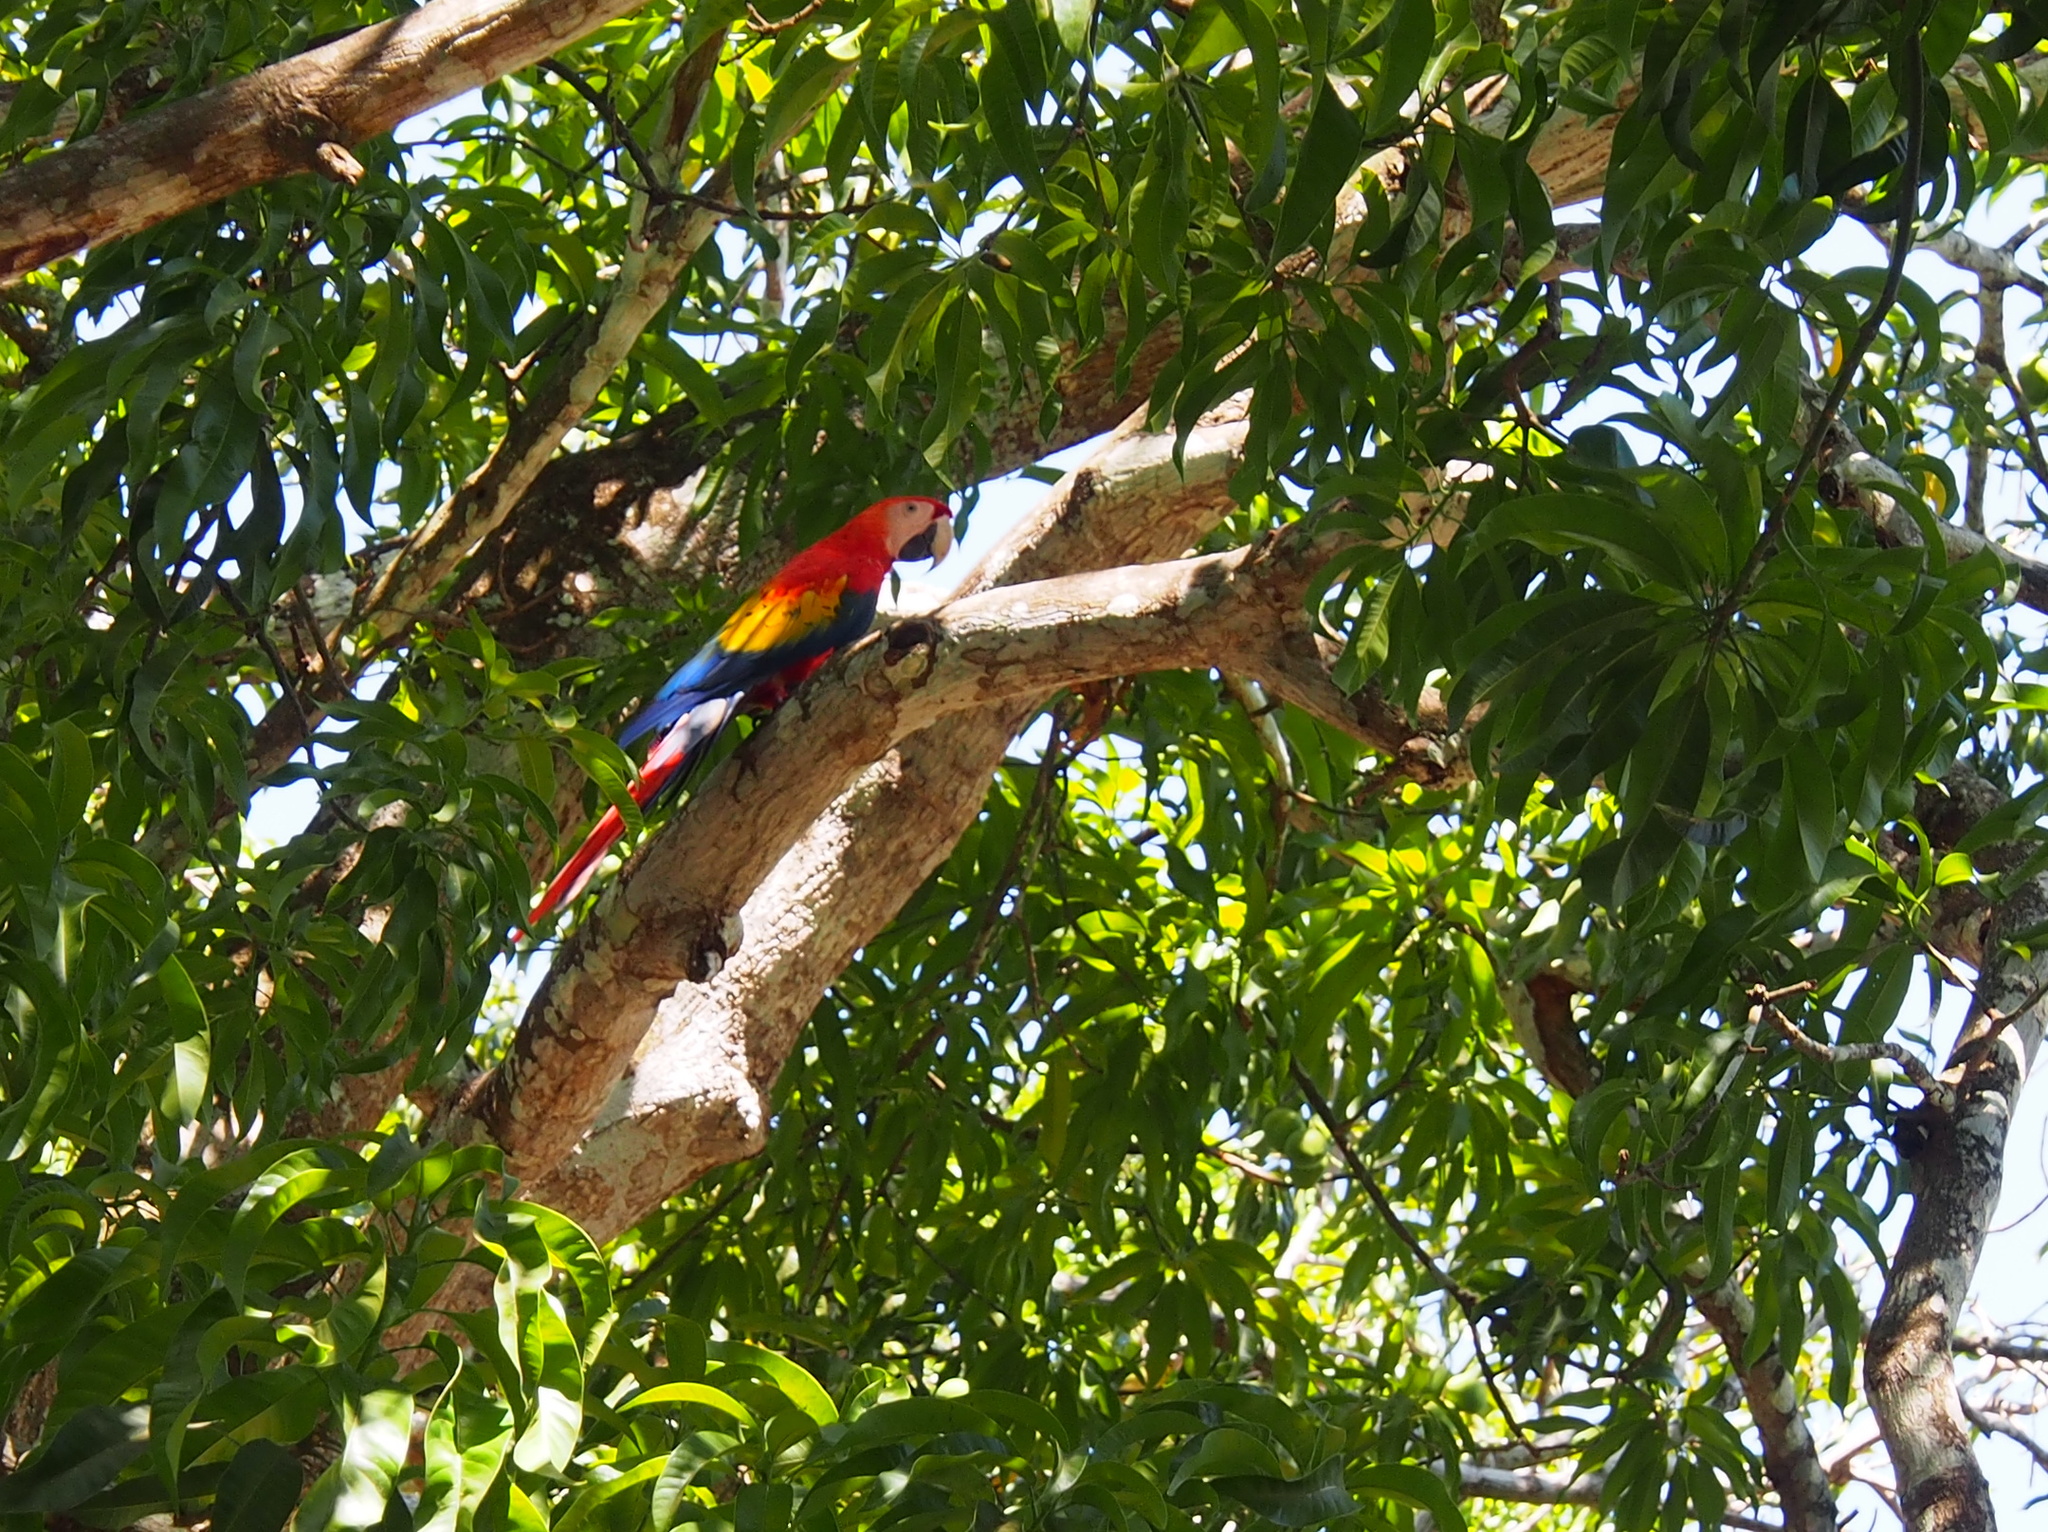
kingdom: Animalia
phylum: Chordata
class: Aves
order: Psittaciformes
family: Psittacidae
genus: Ara
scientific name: Ara macao
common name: Scarlet macaw
